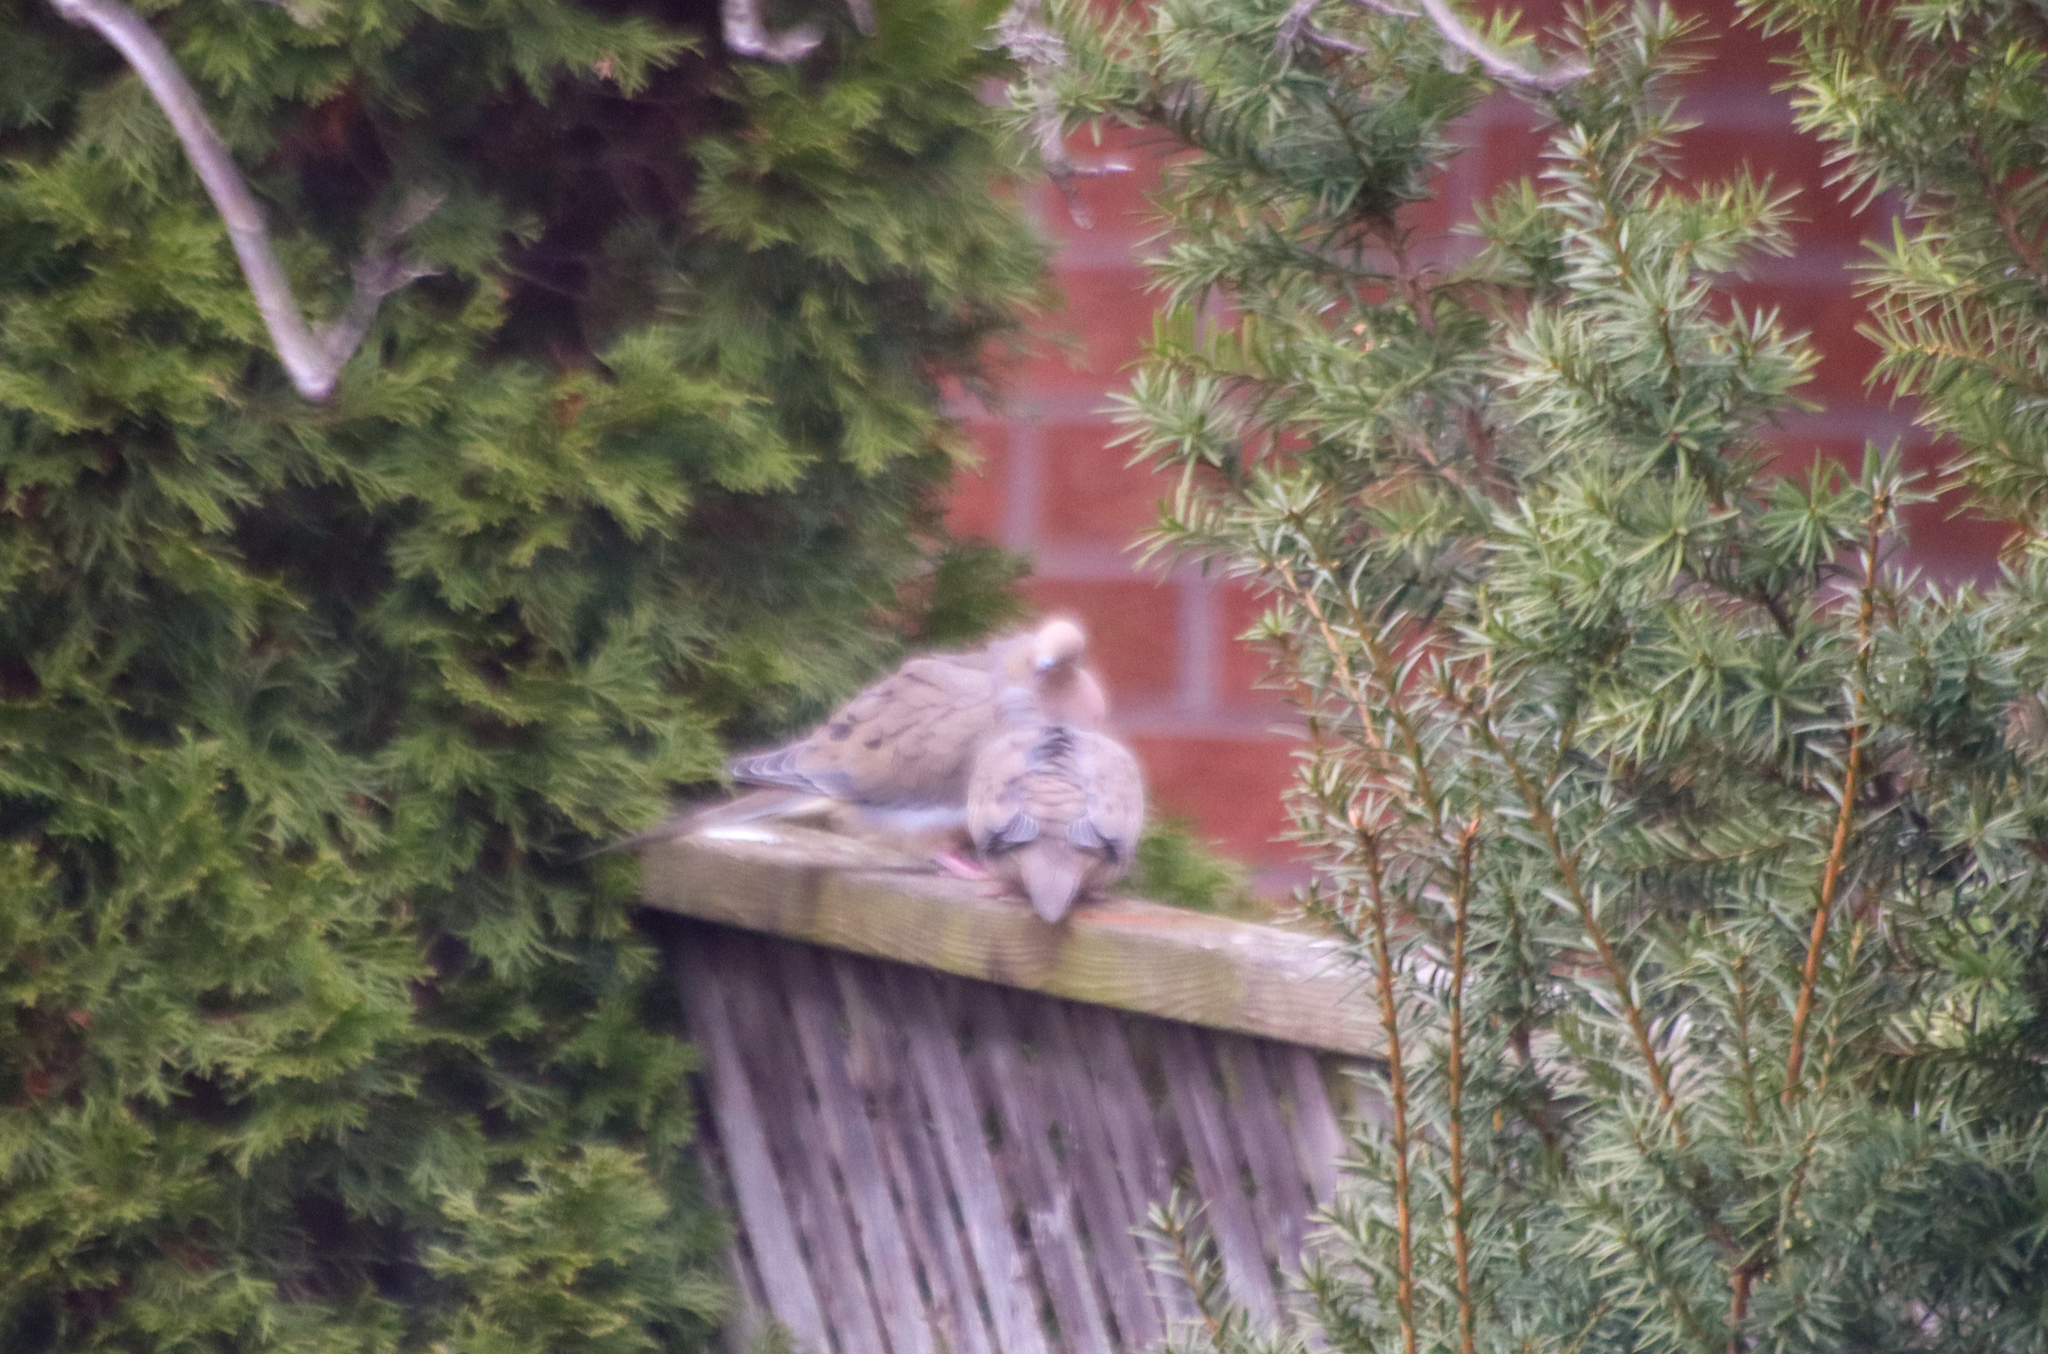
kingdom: Animalia
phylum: Chordata
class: Aves
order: Columbiformes
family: Columbidae
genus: Zenaida
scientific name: Zenaida macroura
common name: Mourning dove
